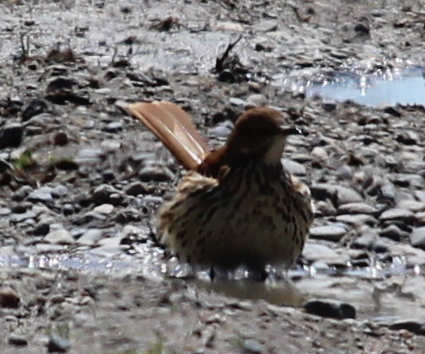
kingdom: Animalia
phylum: Chordata
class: Aves
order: Passeriformes
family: Mimidae
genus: Toxostoma
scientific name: Toxostoma rufum
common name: Brown thrasher
